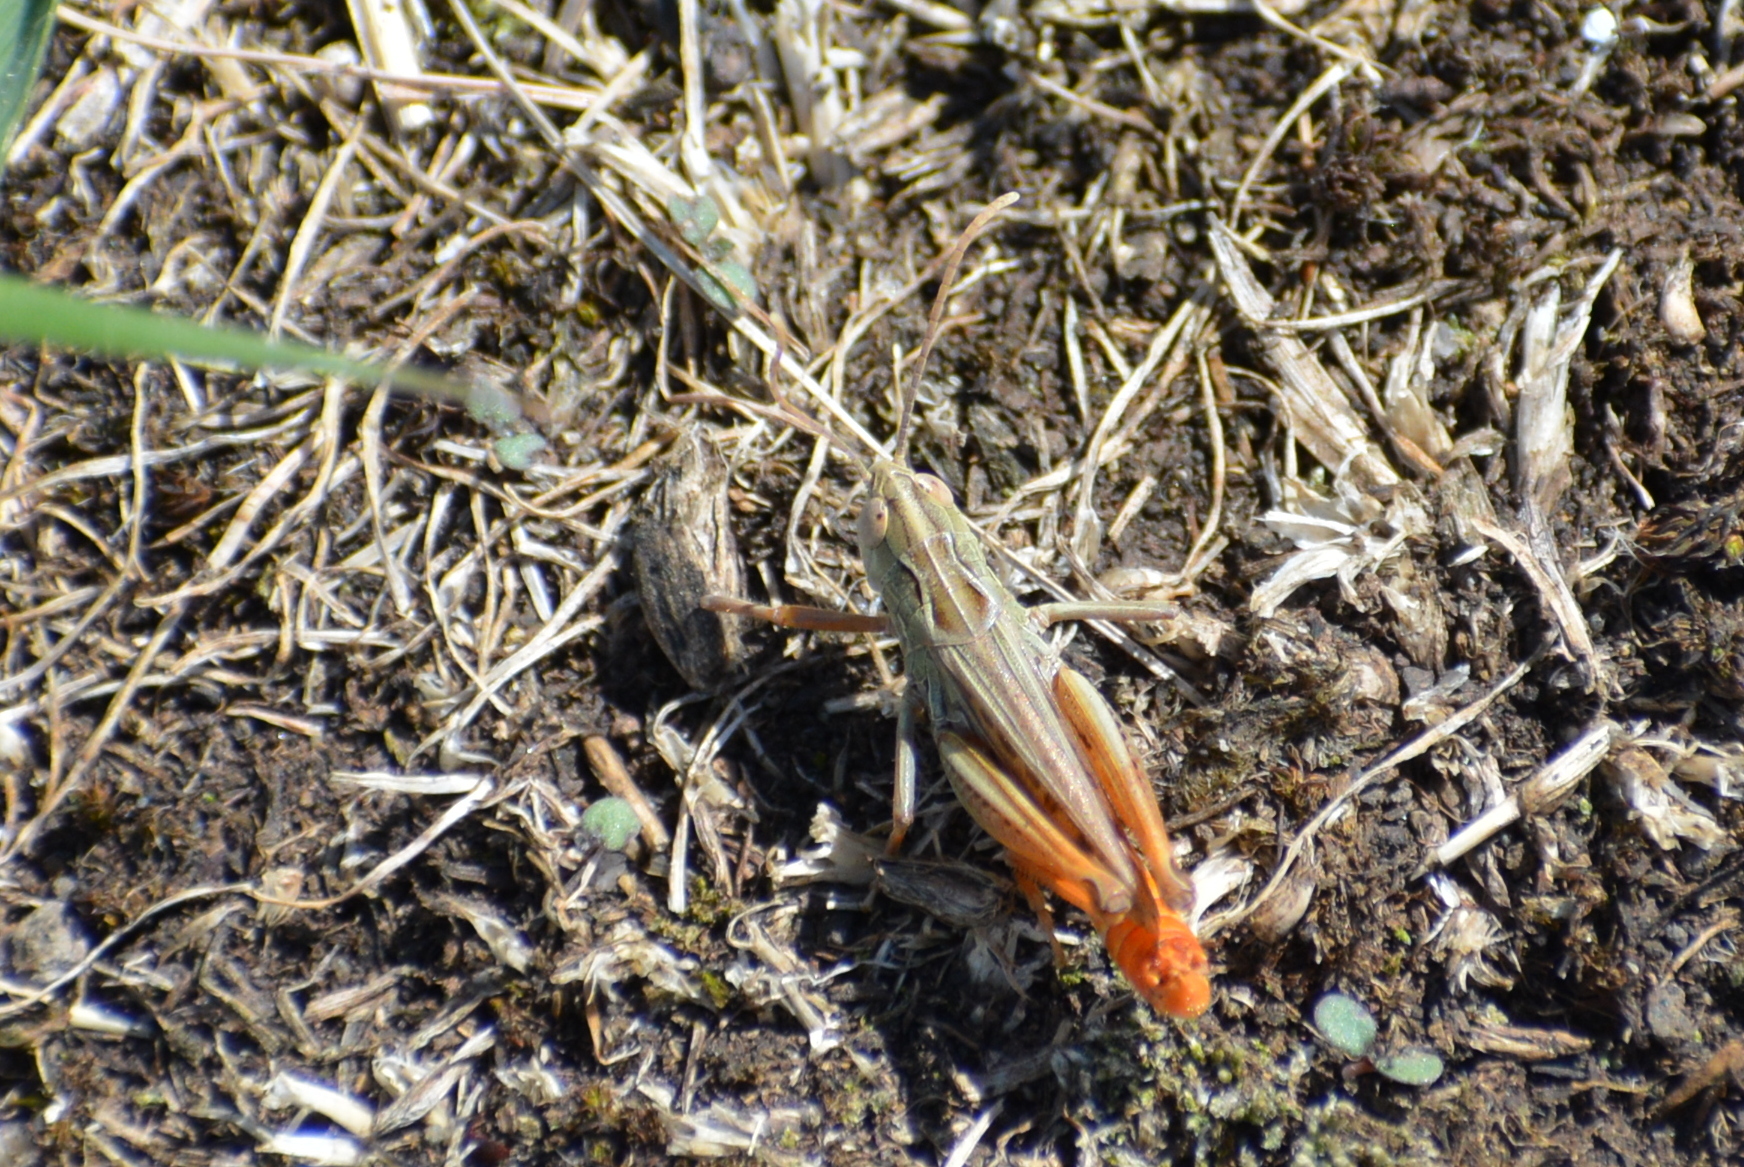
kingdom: Animalia
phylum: Arthropoda
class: Insecta
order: Orthoptera
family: Acrididae
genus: Stenobothrus
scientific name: Stenobothrus nigromaculatus
